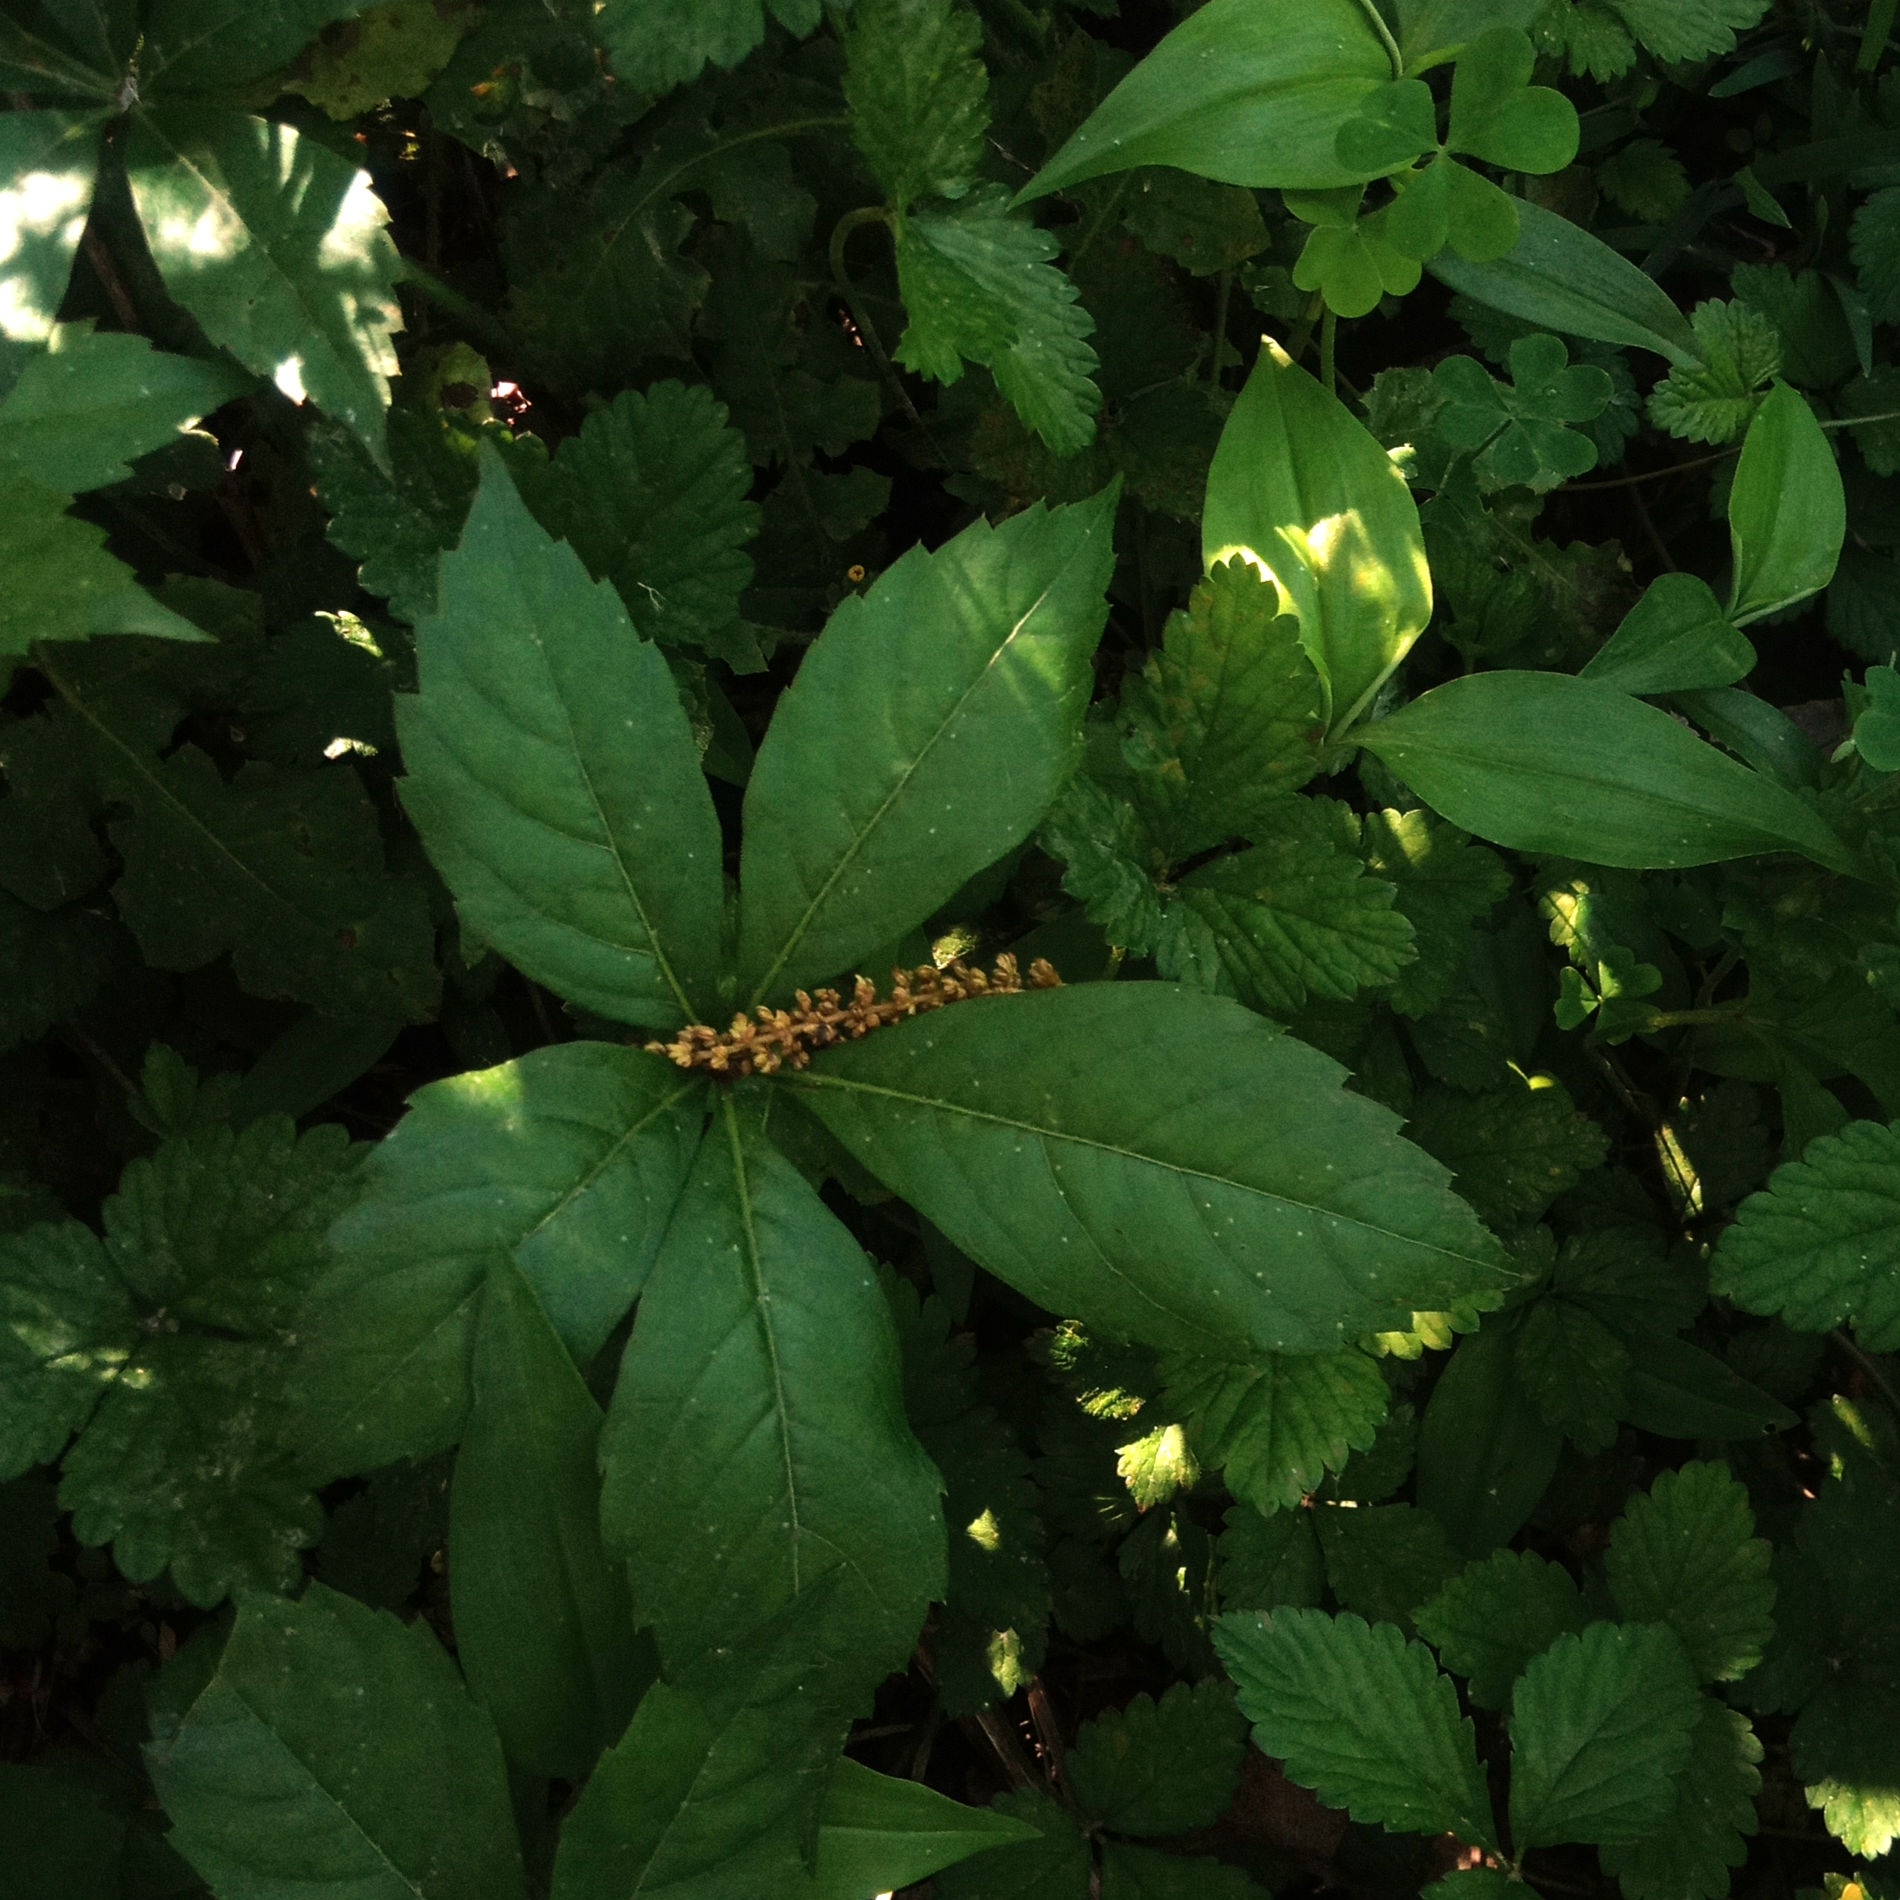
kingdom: Plantae
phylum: Tracheophyta
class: Magnoliopsida
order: Vitales
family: Vitaceae
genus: Parthenocissus
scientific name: Parthenocissus quinquefolia
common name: Virginia-creeper
